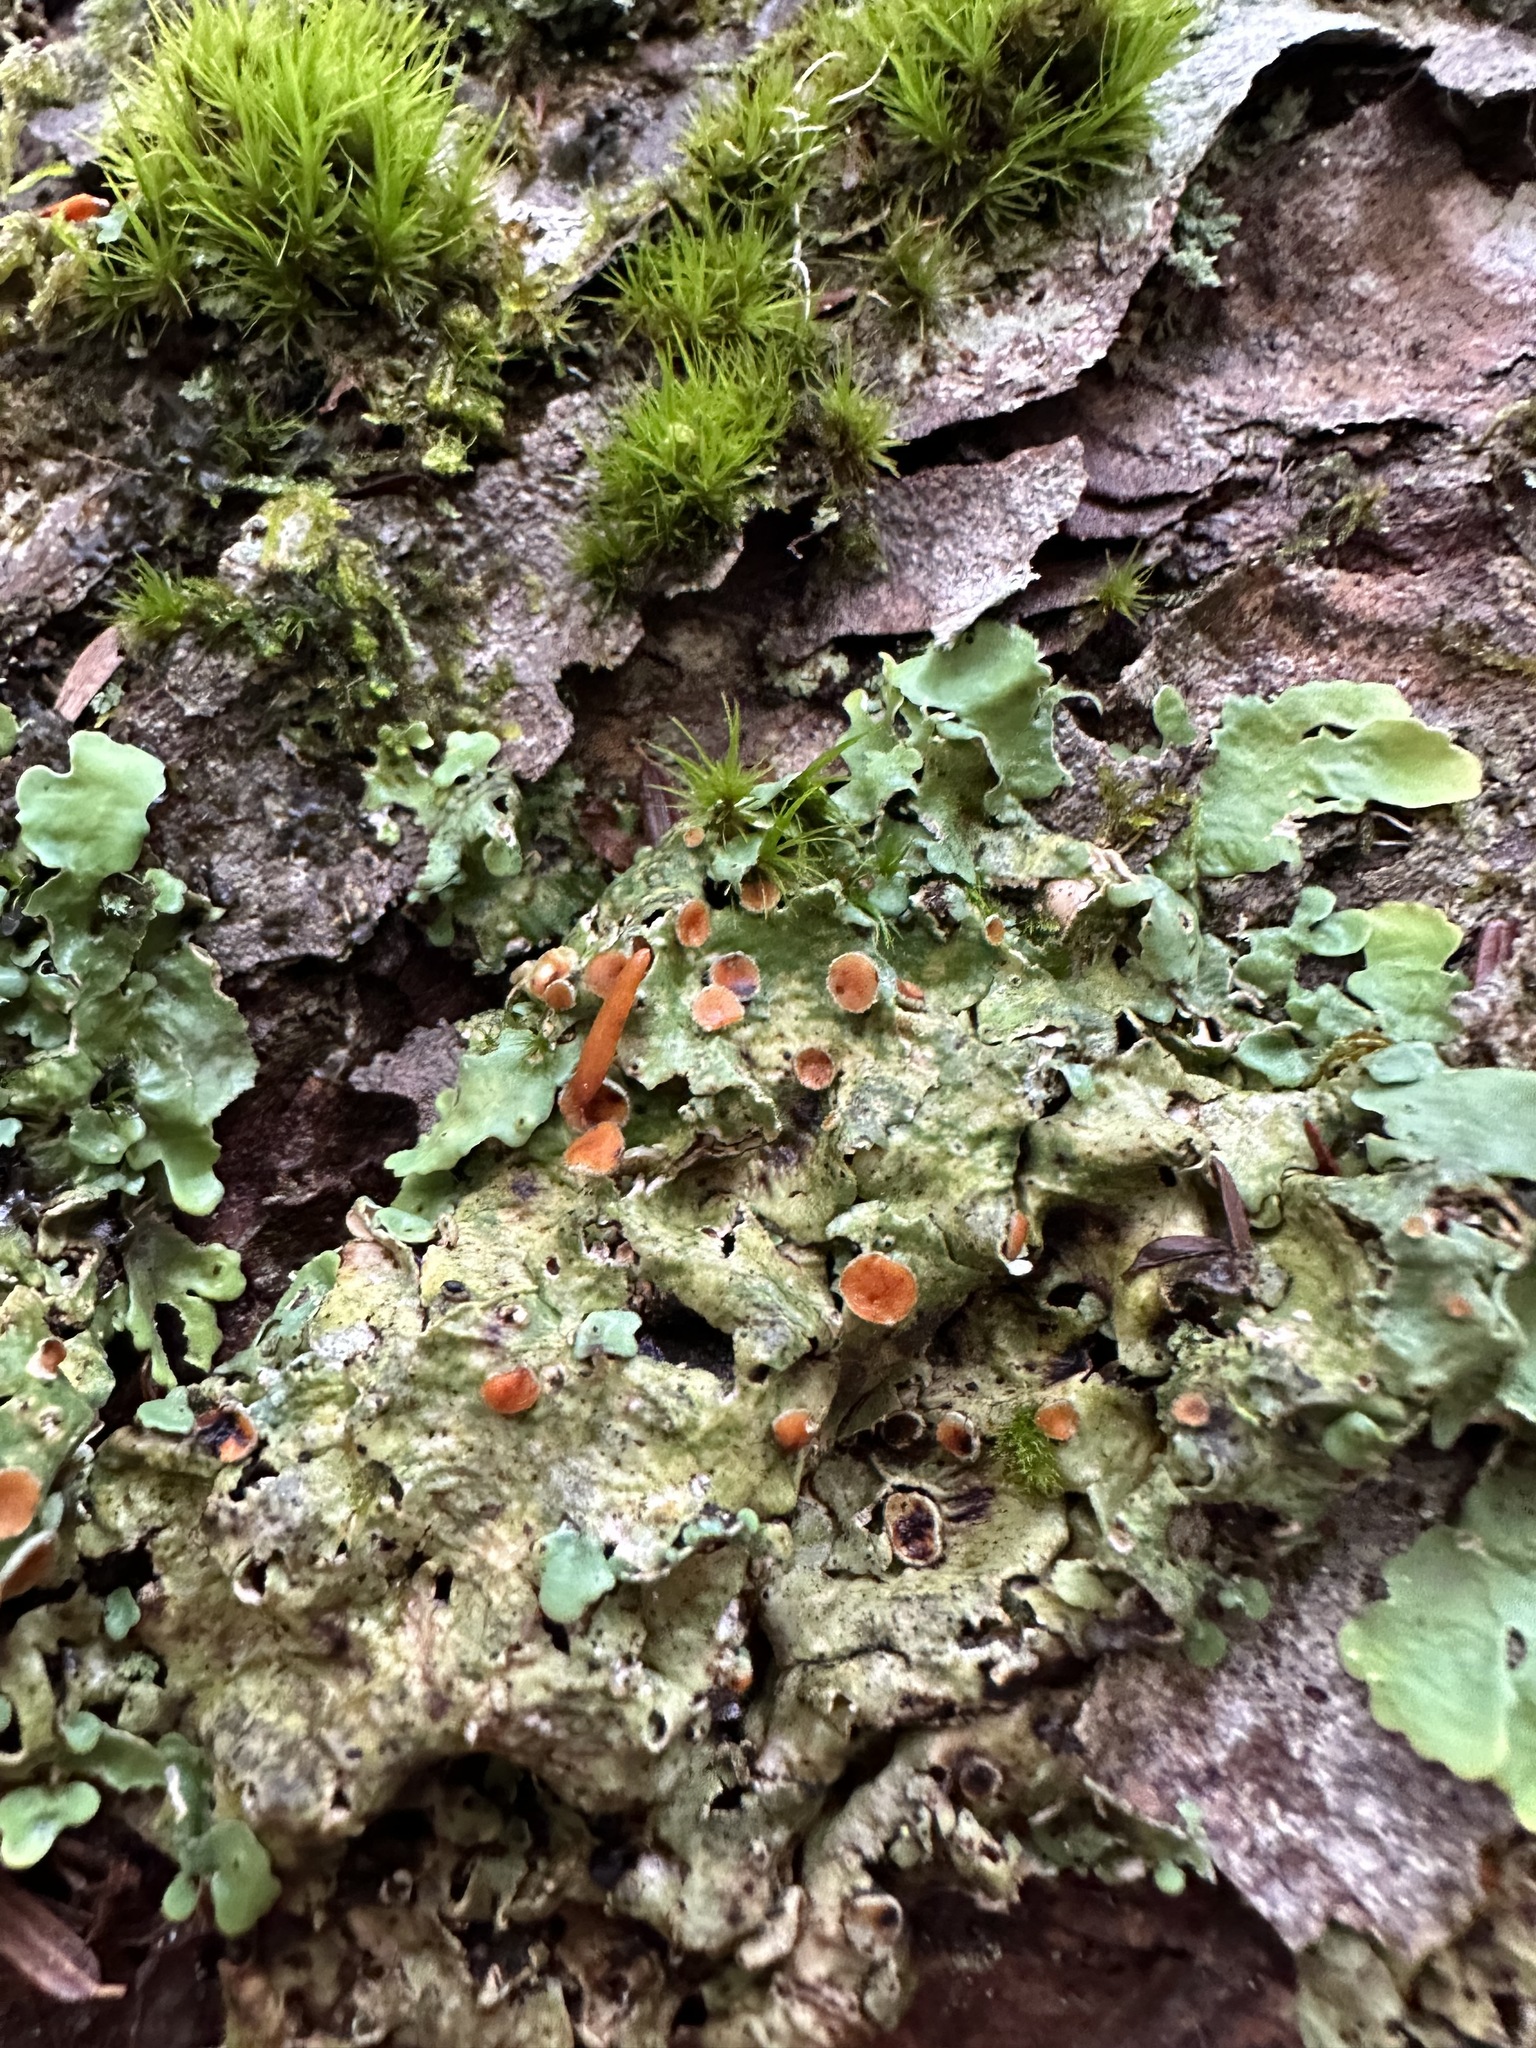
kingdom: Fungi
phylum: Ascomycota
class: Lecanoromycetes
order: Peltigerales
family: Lobariaceae
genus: Ricasolia
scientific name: Ricasolia quercizans
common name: Smooth lungwort
